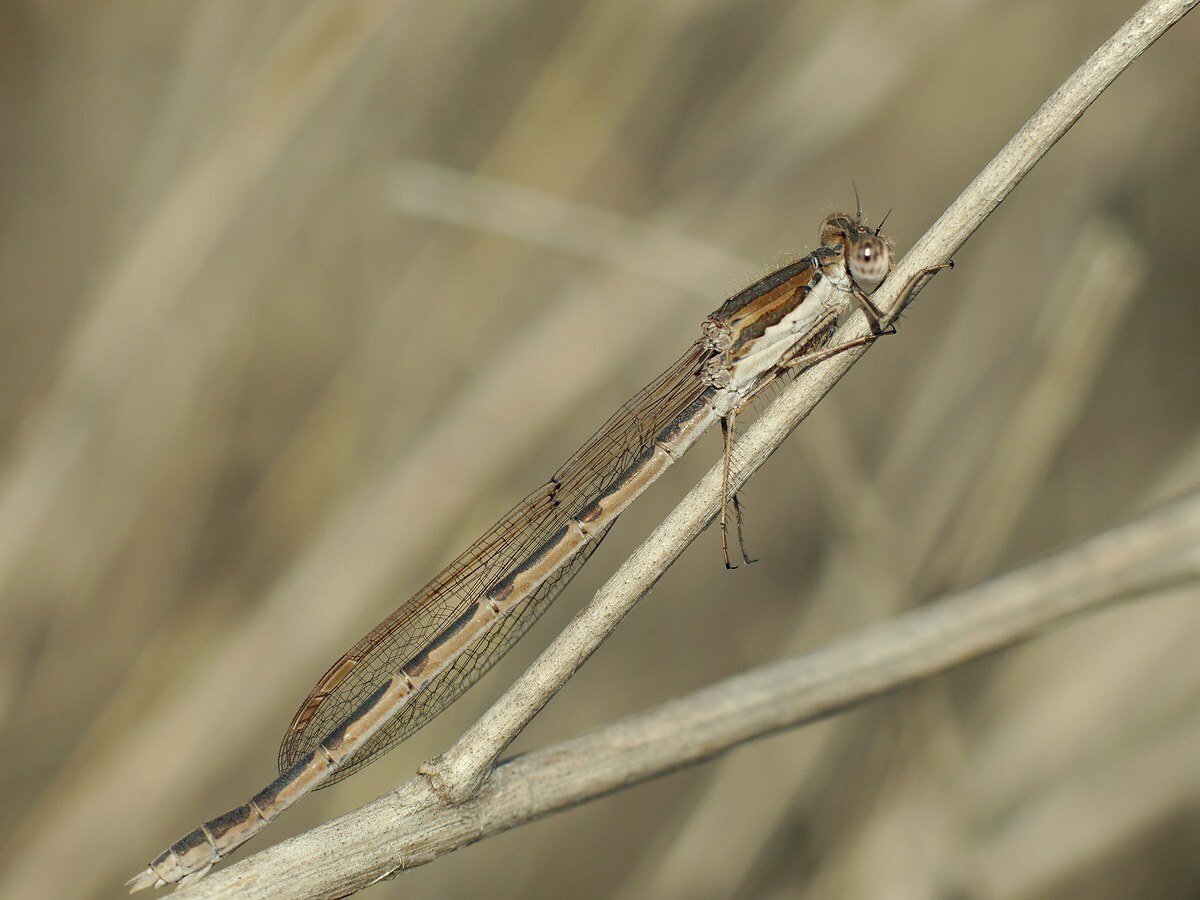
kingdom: Animalia
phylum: Arthropoda
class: Insecta
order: Odonata
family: Lestidae
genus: Sympecma
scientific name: Sympecma fusca
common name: Common winter damsel
